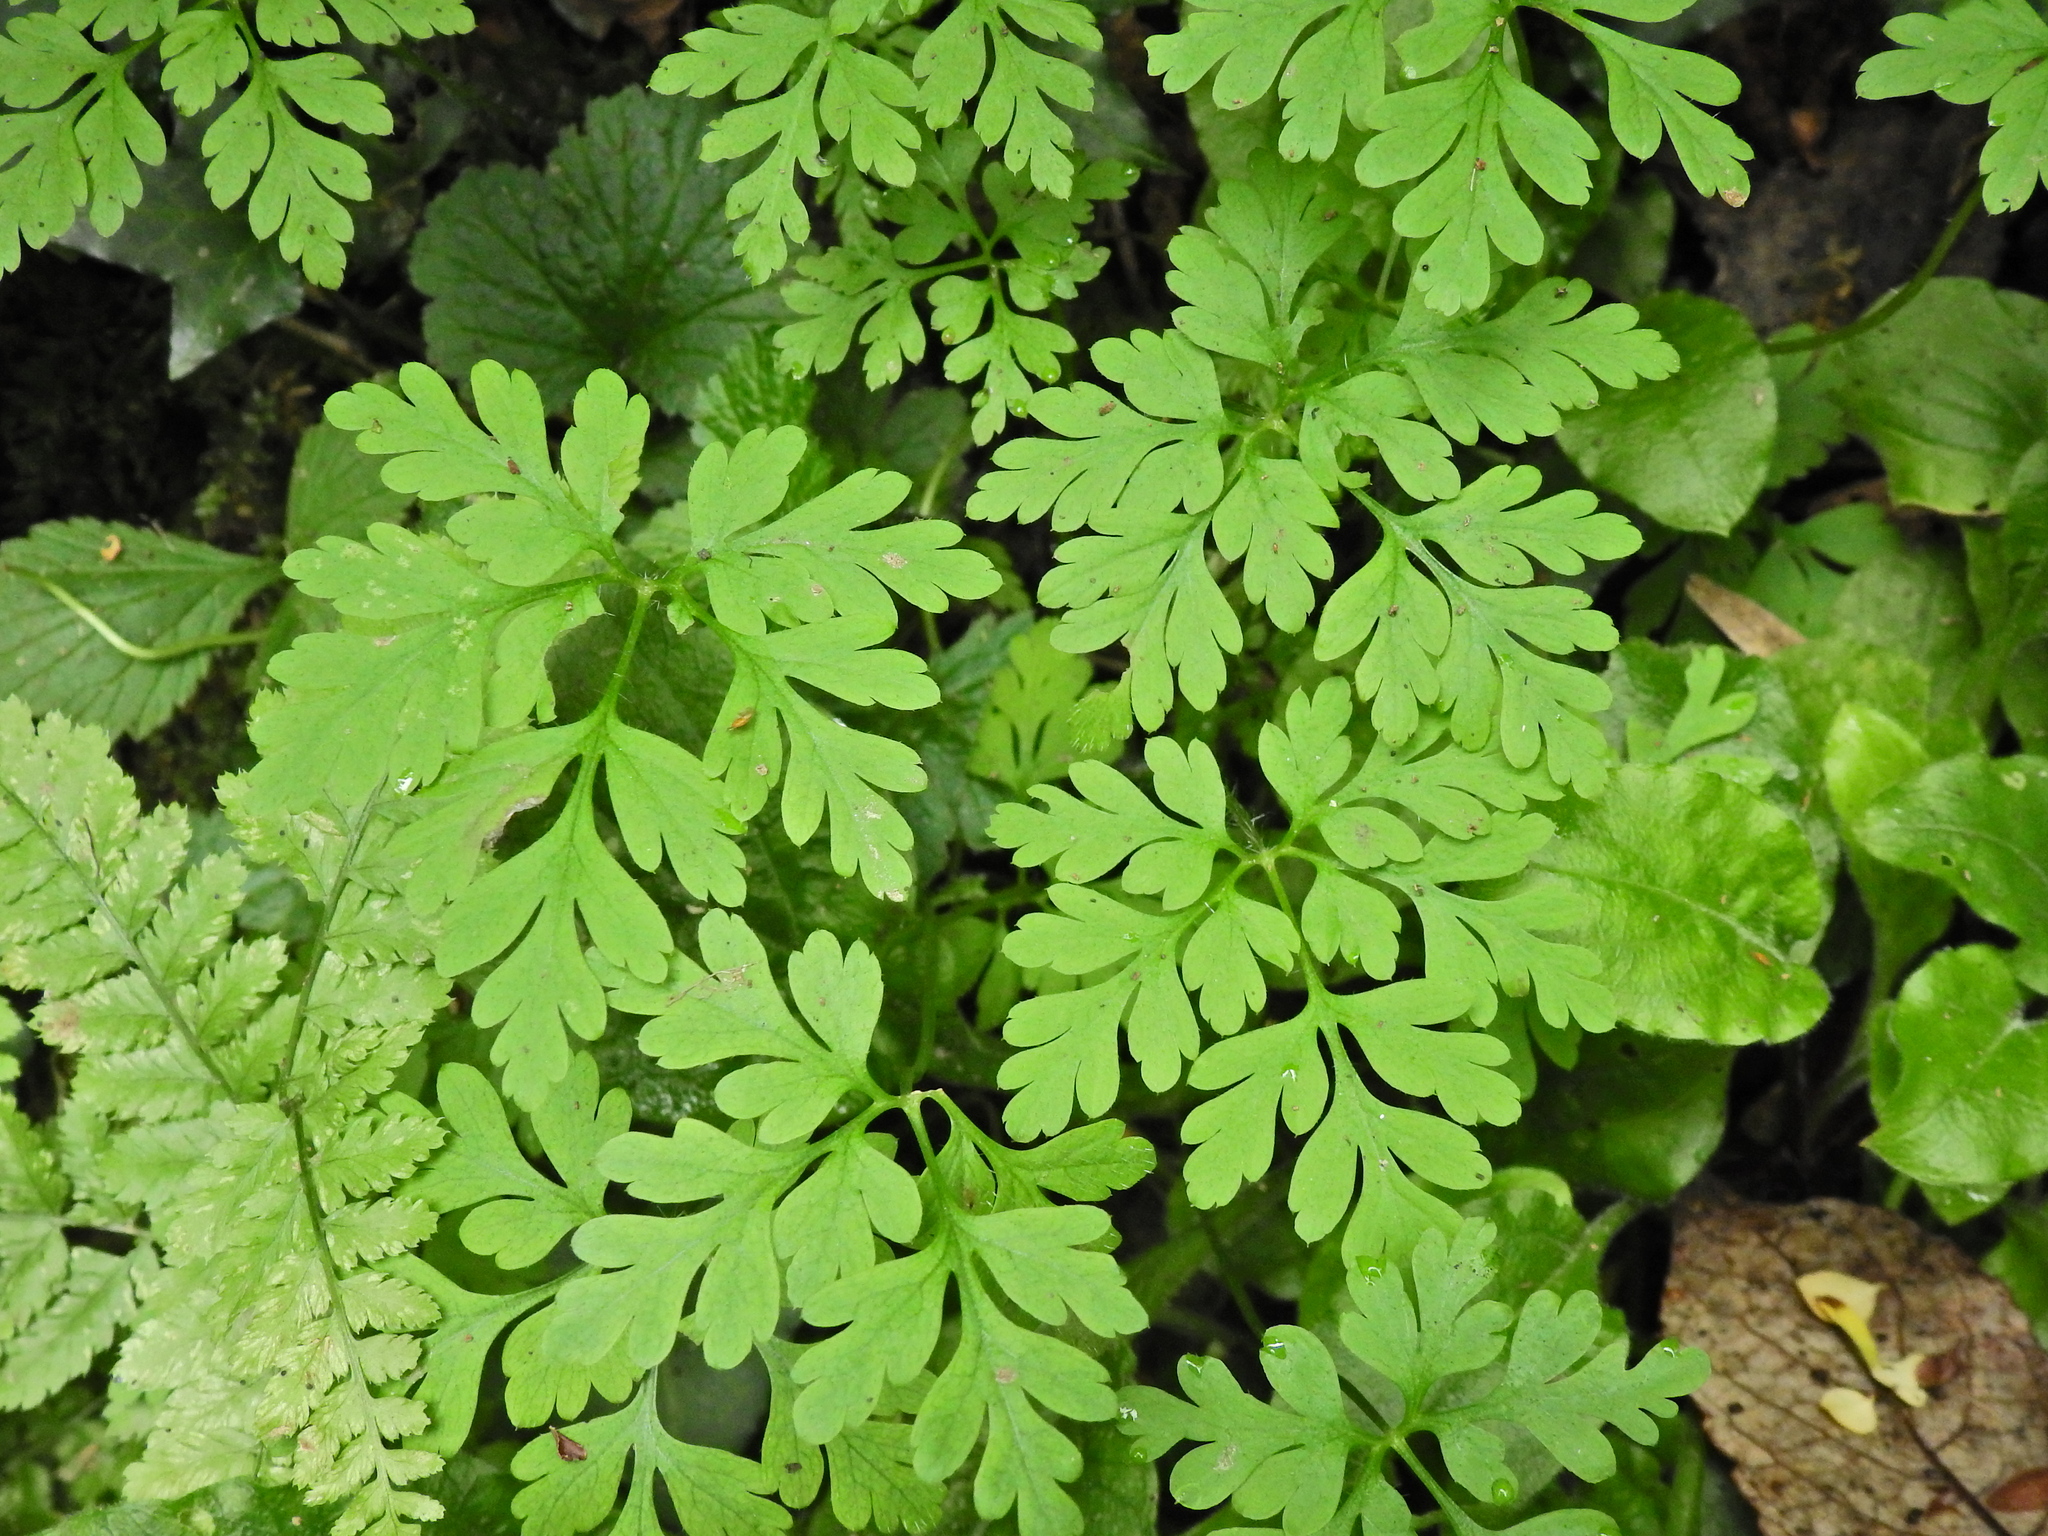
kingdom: Plantae
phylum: Tracheophyta
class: Magnoliopsida
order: Geraniales
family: Geraniaceae
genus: Geranium
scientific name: Geranium robertianum
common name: Herb-robert
